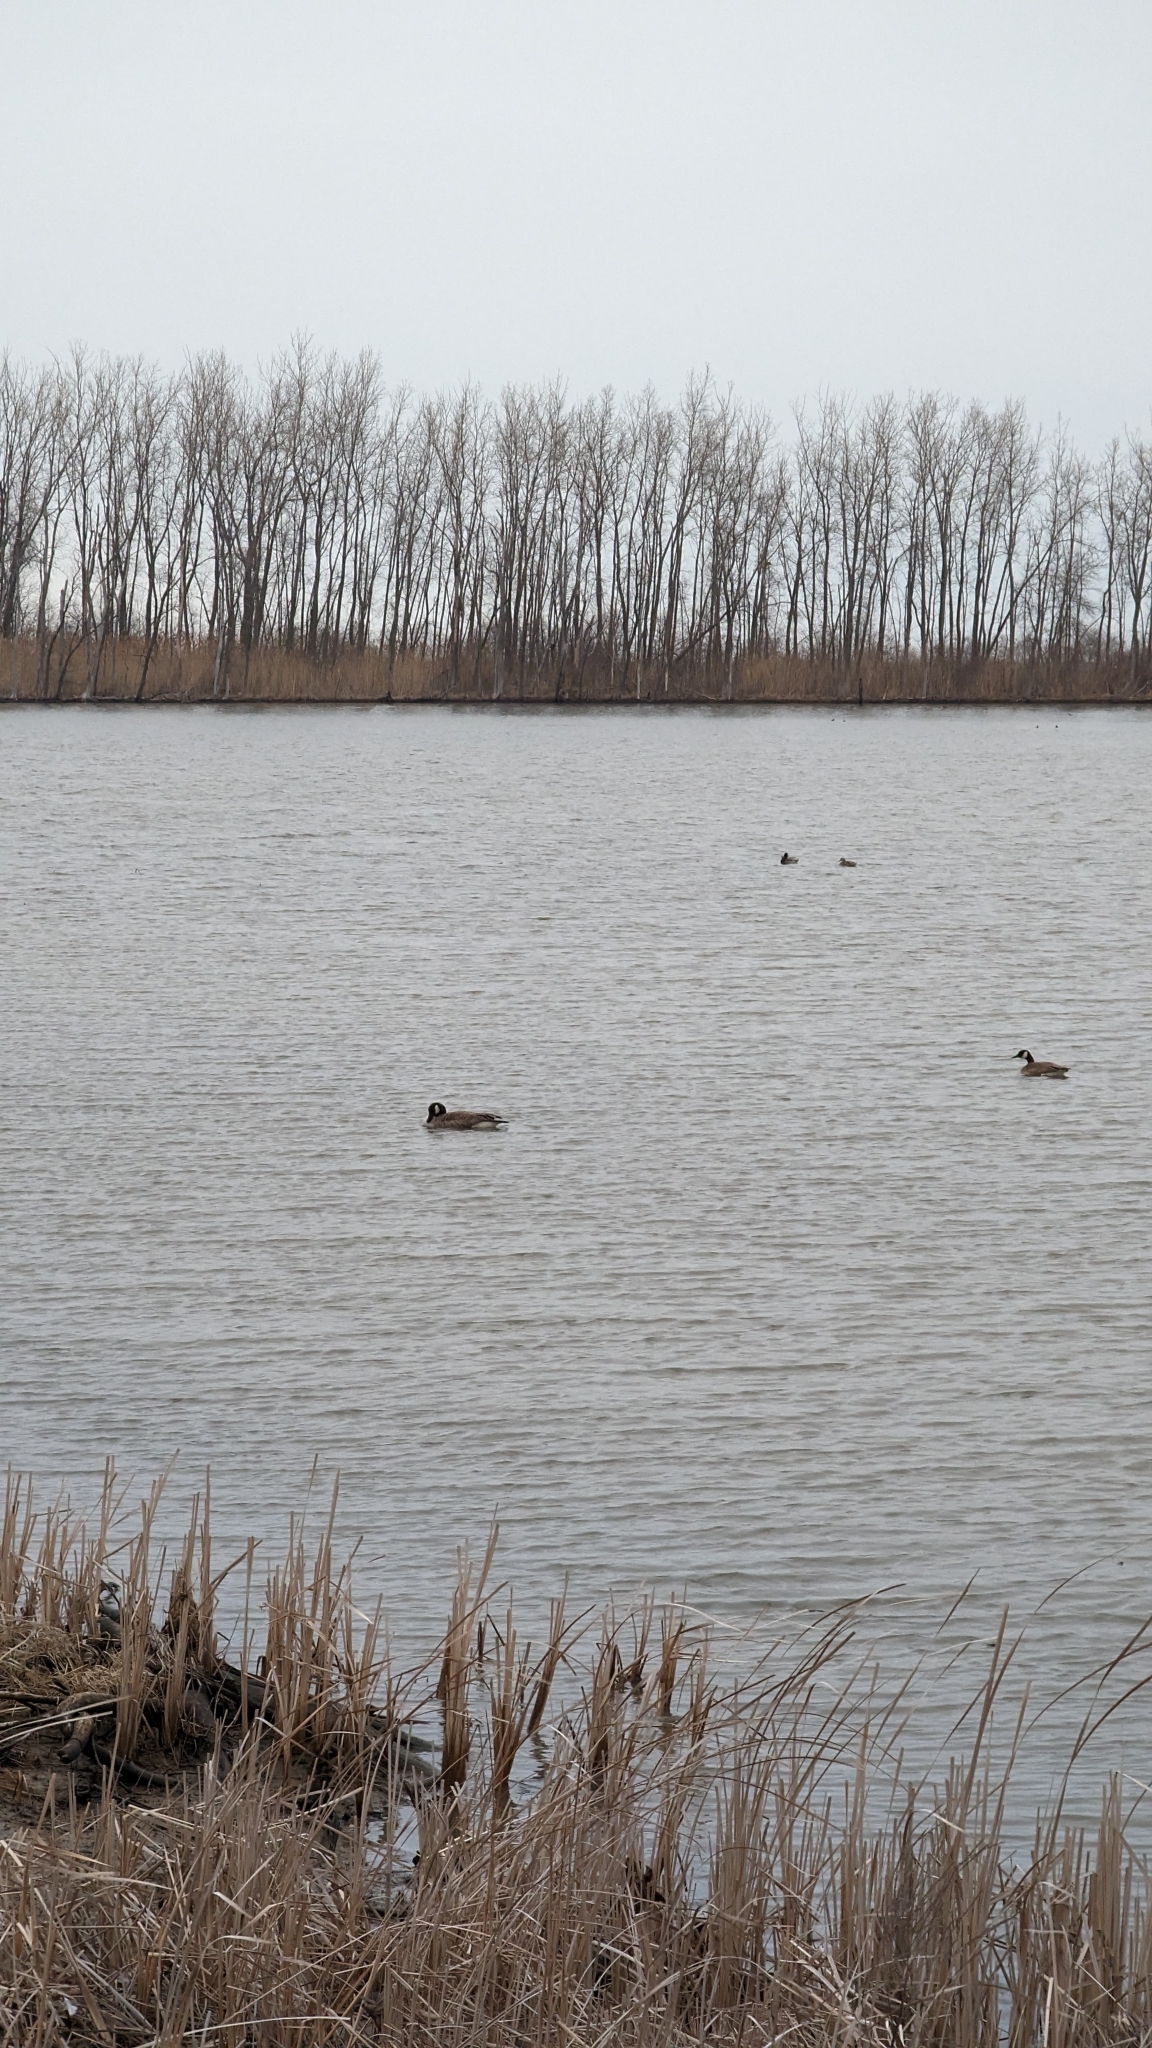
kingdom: Animalia
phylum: Chordata
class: Aves
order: Anseriformes
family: Anatidae
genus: Branta
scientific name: Branta canadensis
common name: Canada goose
